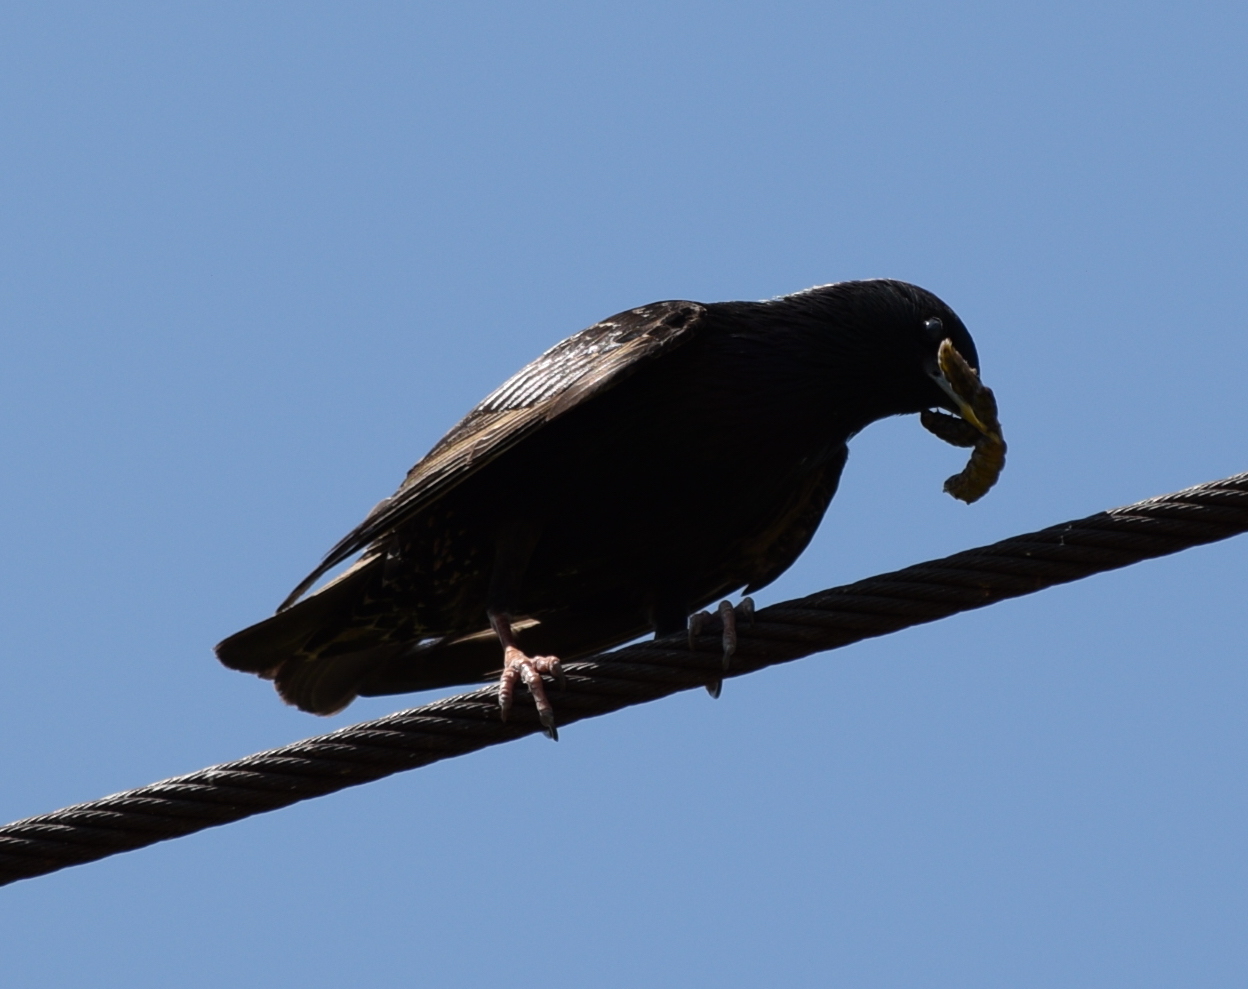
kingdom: Animalia
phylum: Chordata
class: Aves
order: Passeriformes
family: Sturnidae
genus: Sturnus
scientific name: Sturnus vulgaris
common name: Common starling
